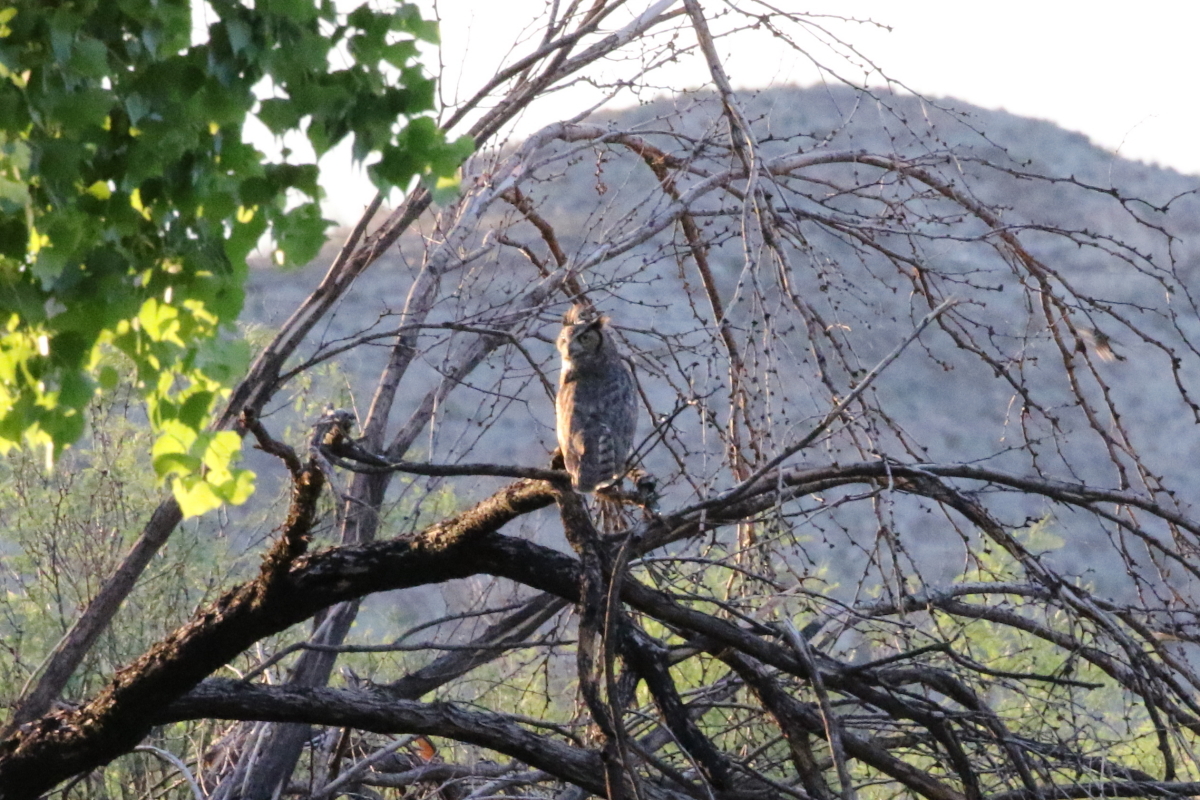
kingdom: Animalia
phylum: Chordata
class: Aves
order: Strigiformes
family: Strigidae
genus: Bubo
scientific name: Bubo virginianus
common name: Great horned owl
